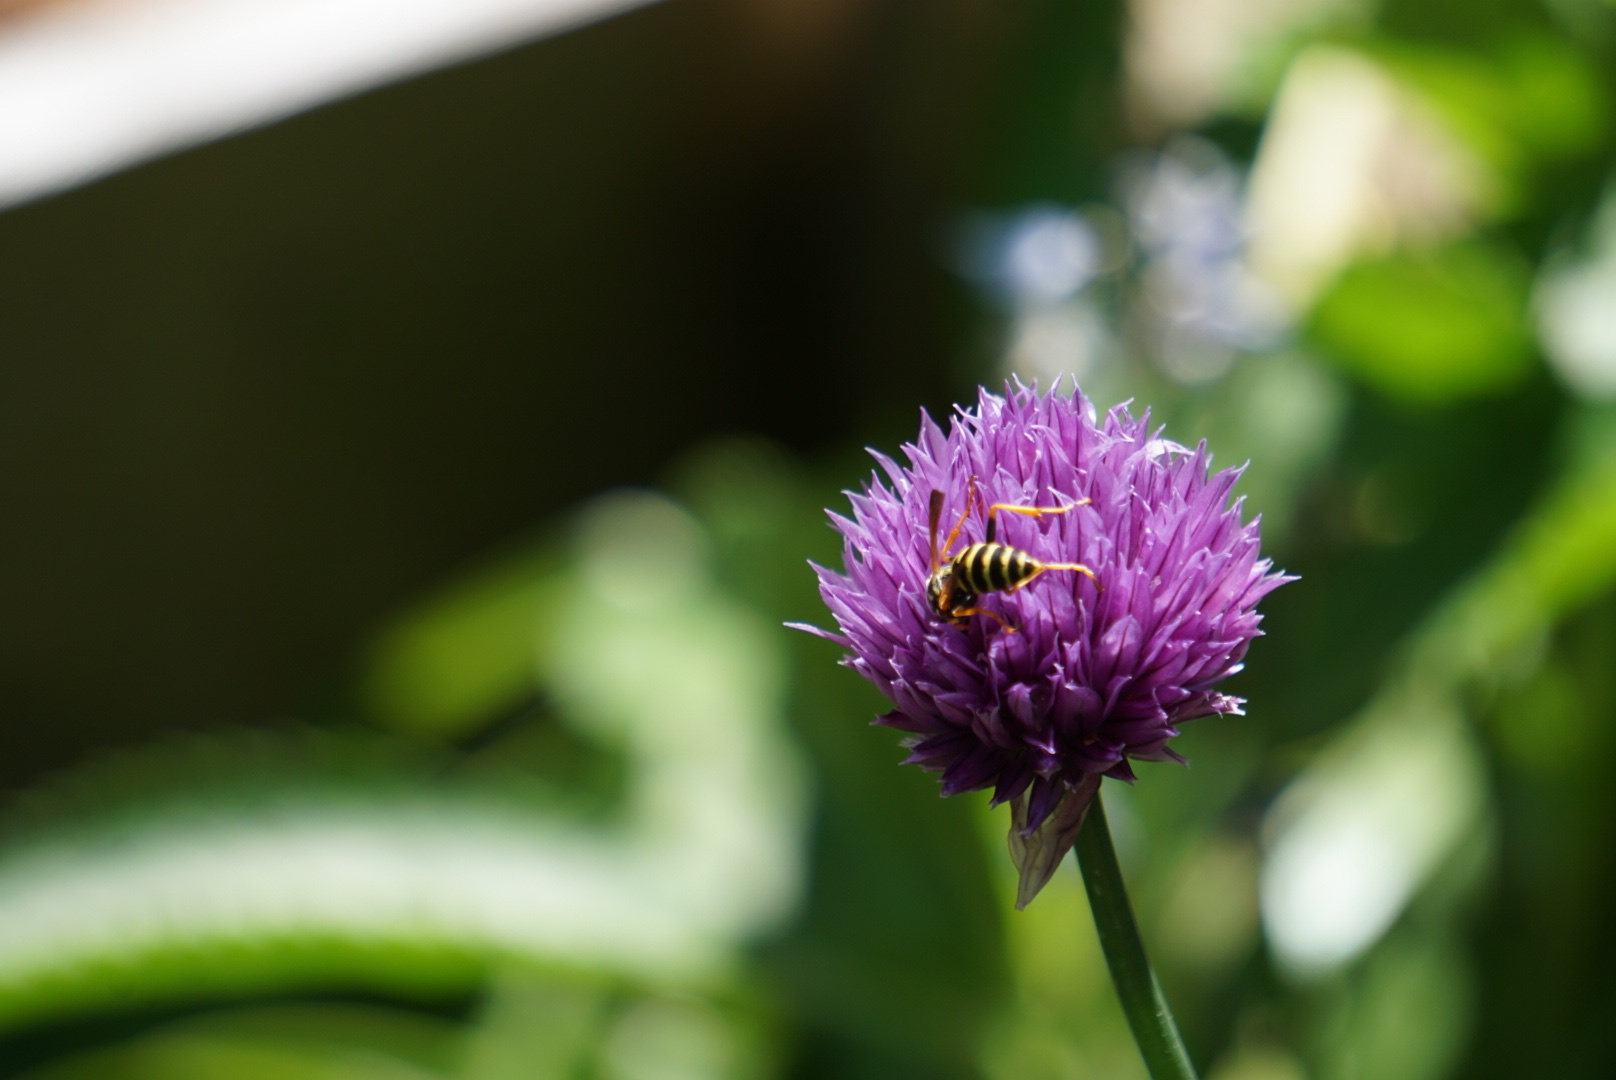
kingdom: Animalia
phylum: Arthropoda
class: Insecta
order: Hymenoptera
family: Eumenidae
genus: Polistes
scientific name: Polistes dominula
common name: Paper wasp
